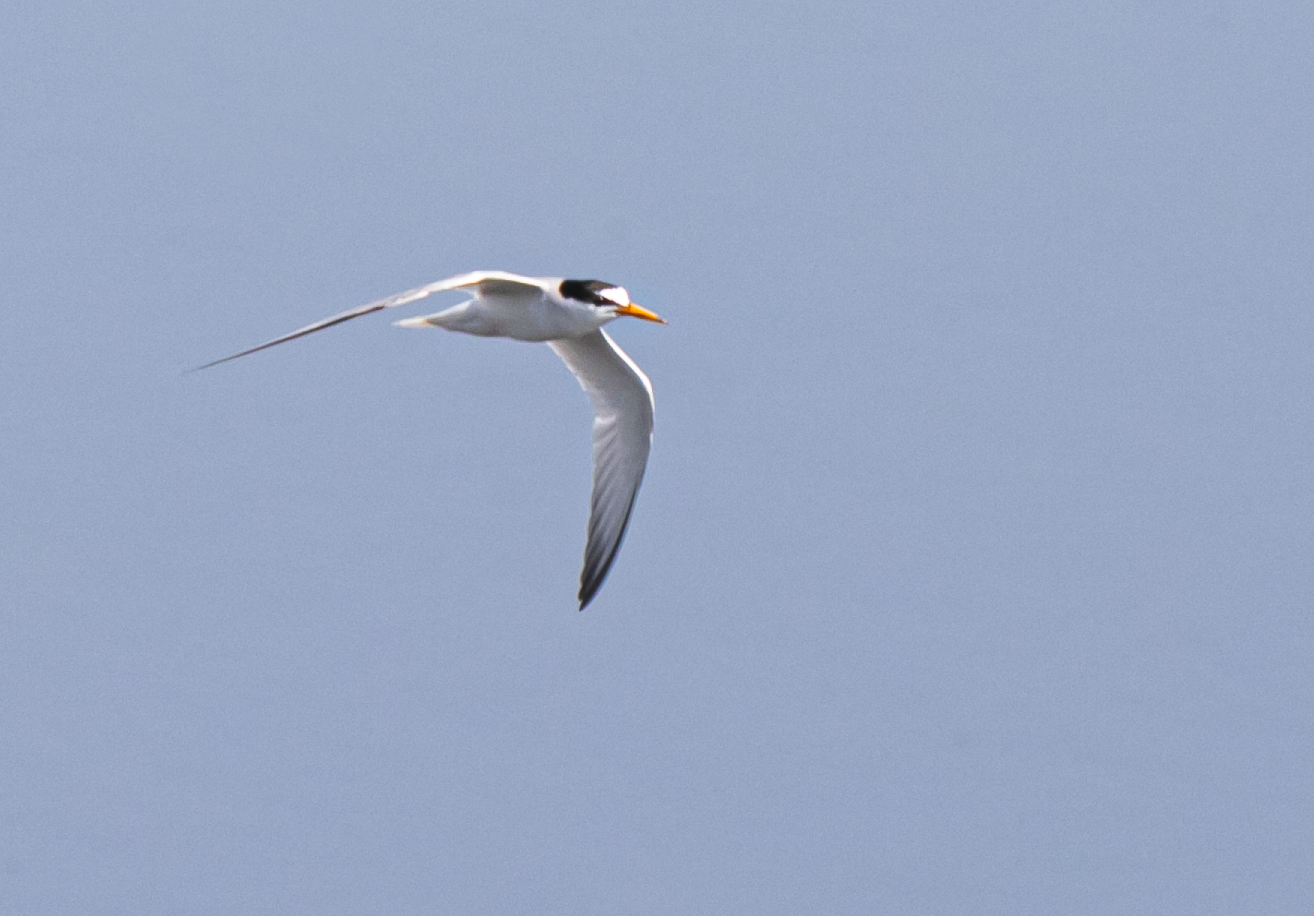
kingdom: Animalia
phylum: Chordata
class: Aves
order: Charadriiformes
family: Laridae
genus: Sternula
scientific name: Sternula albifrons
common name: Little tern
